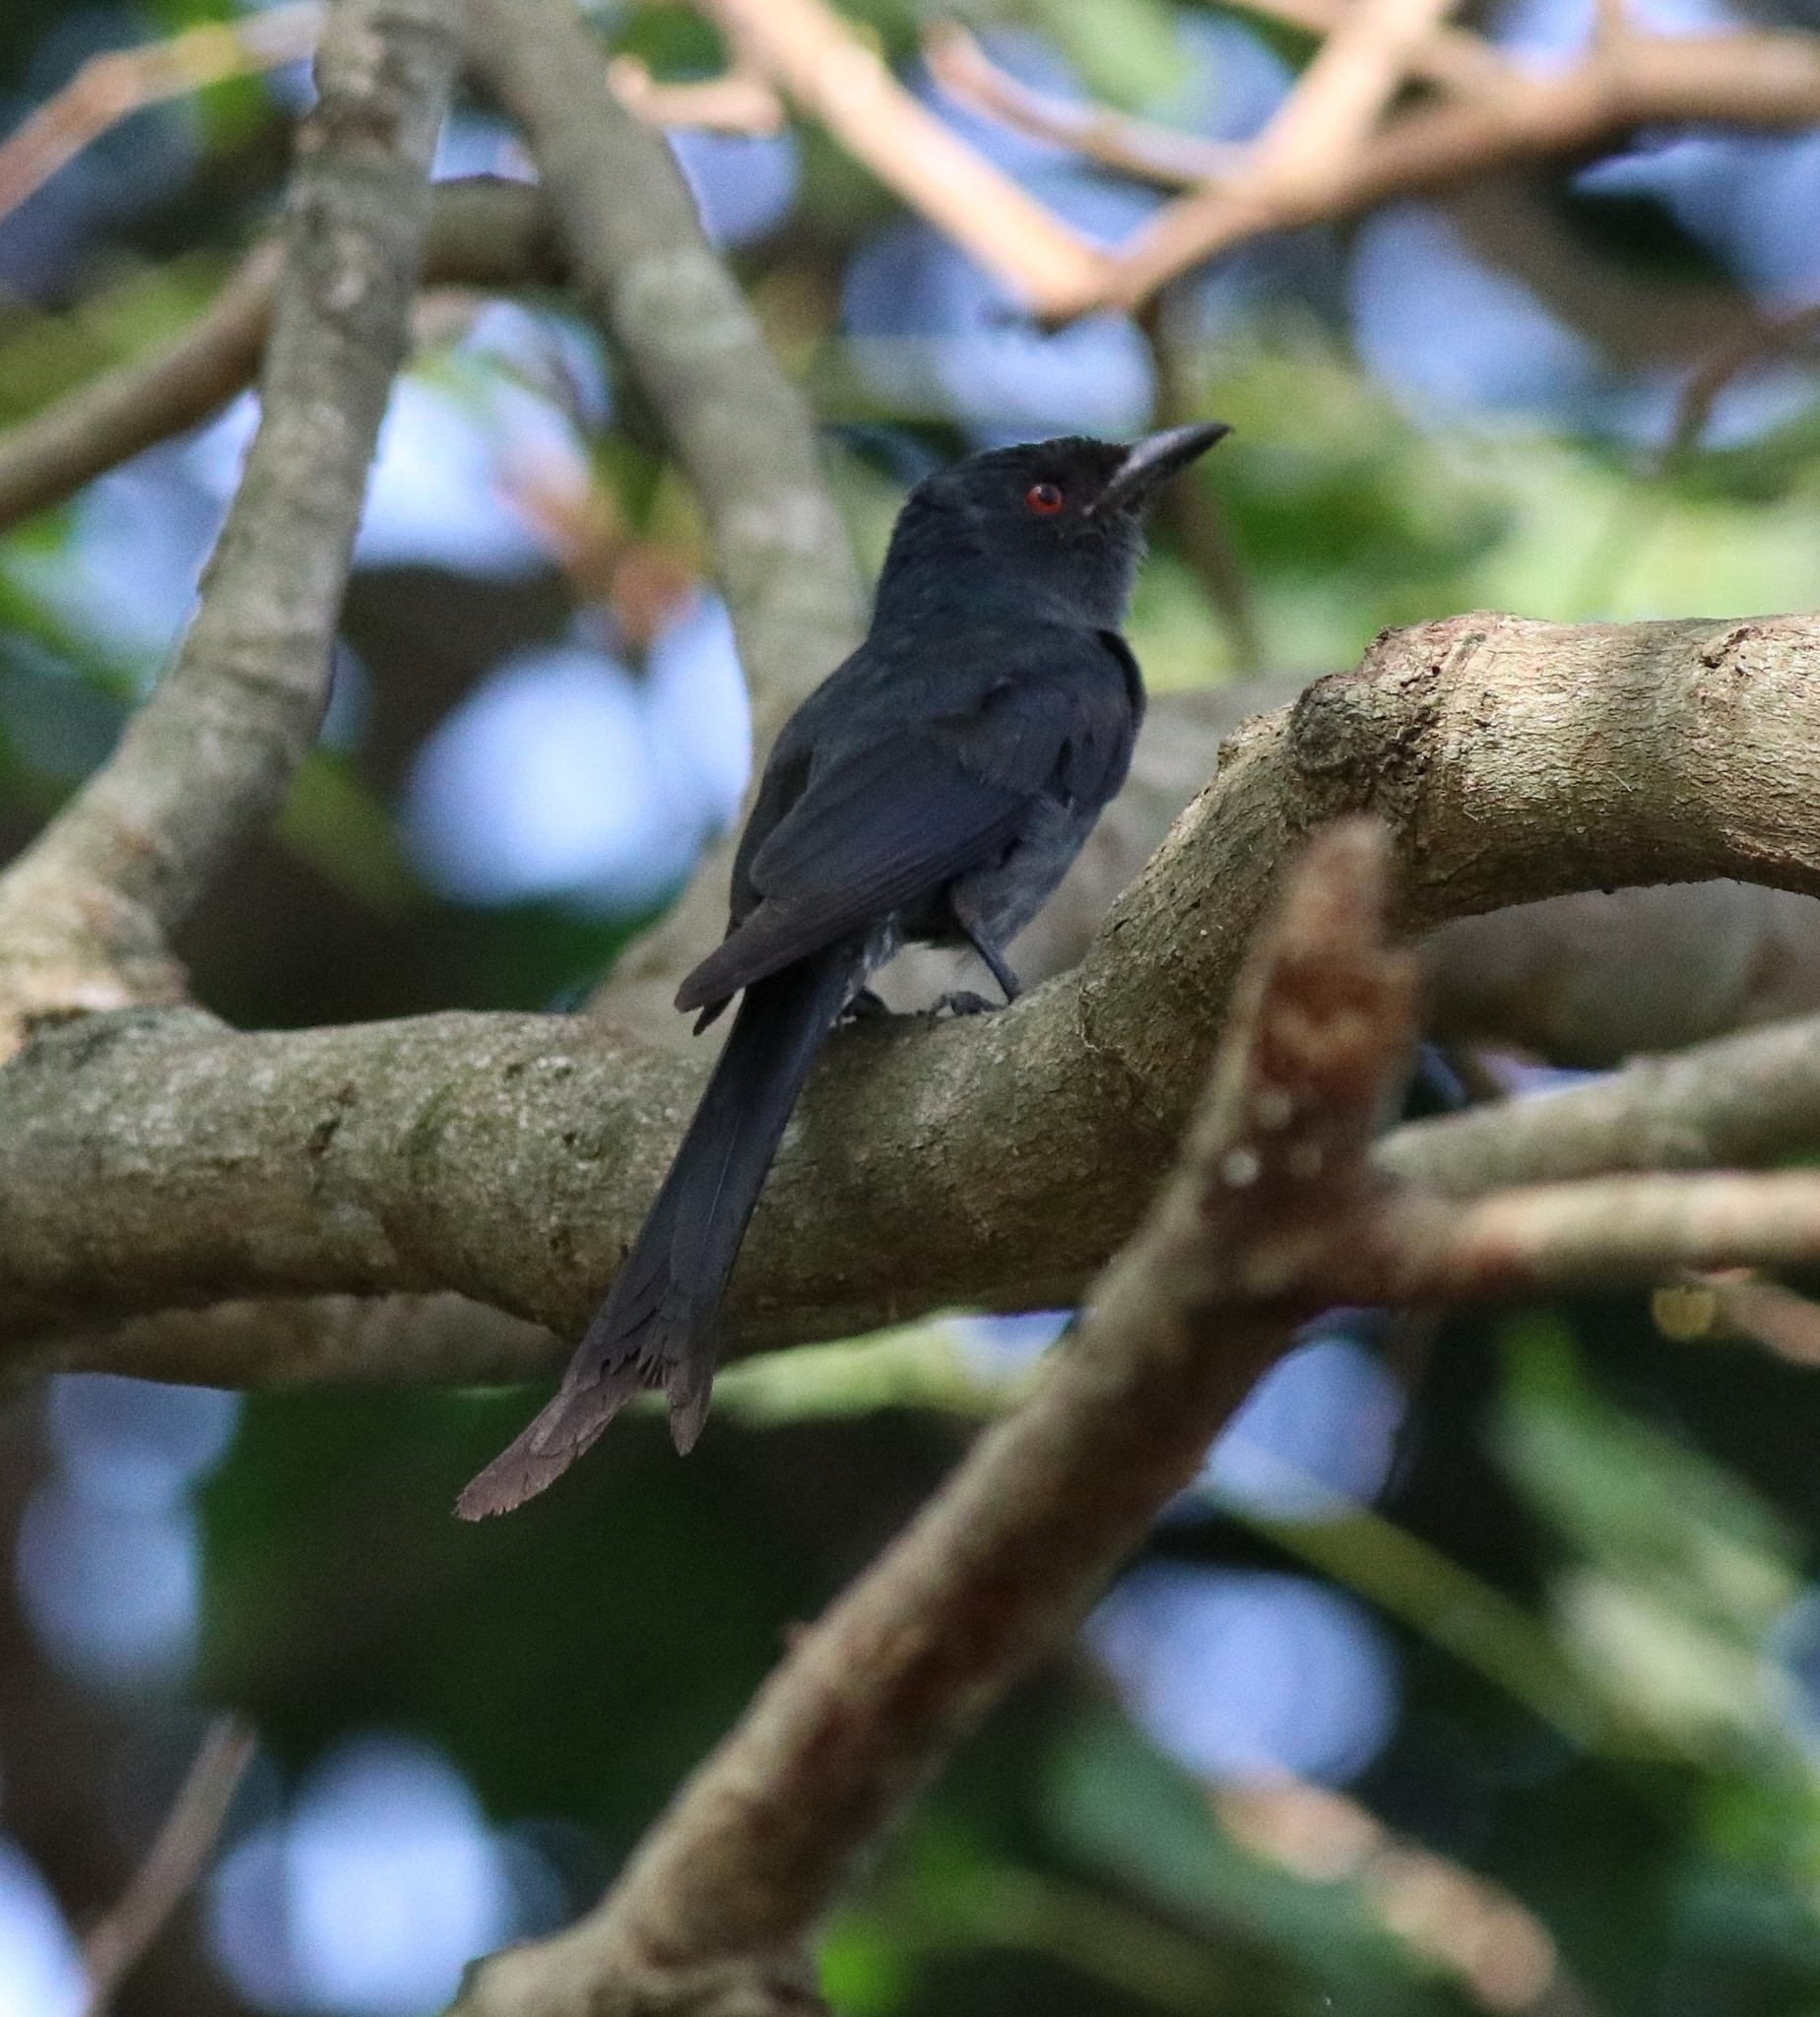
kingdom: Animalia
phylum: Chordata
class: Aves
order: Passeriformes
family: Dicruridae
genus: Dicrurus
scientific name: Dicrurus macrocercus
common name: Black drongo
